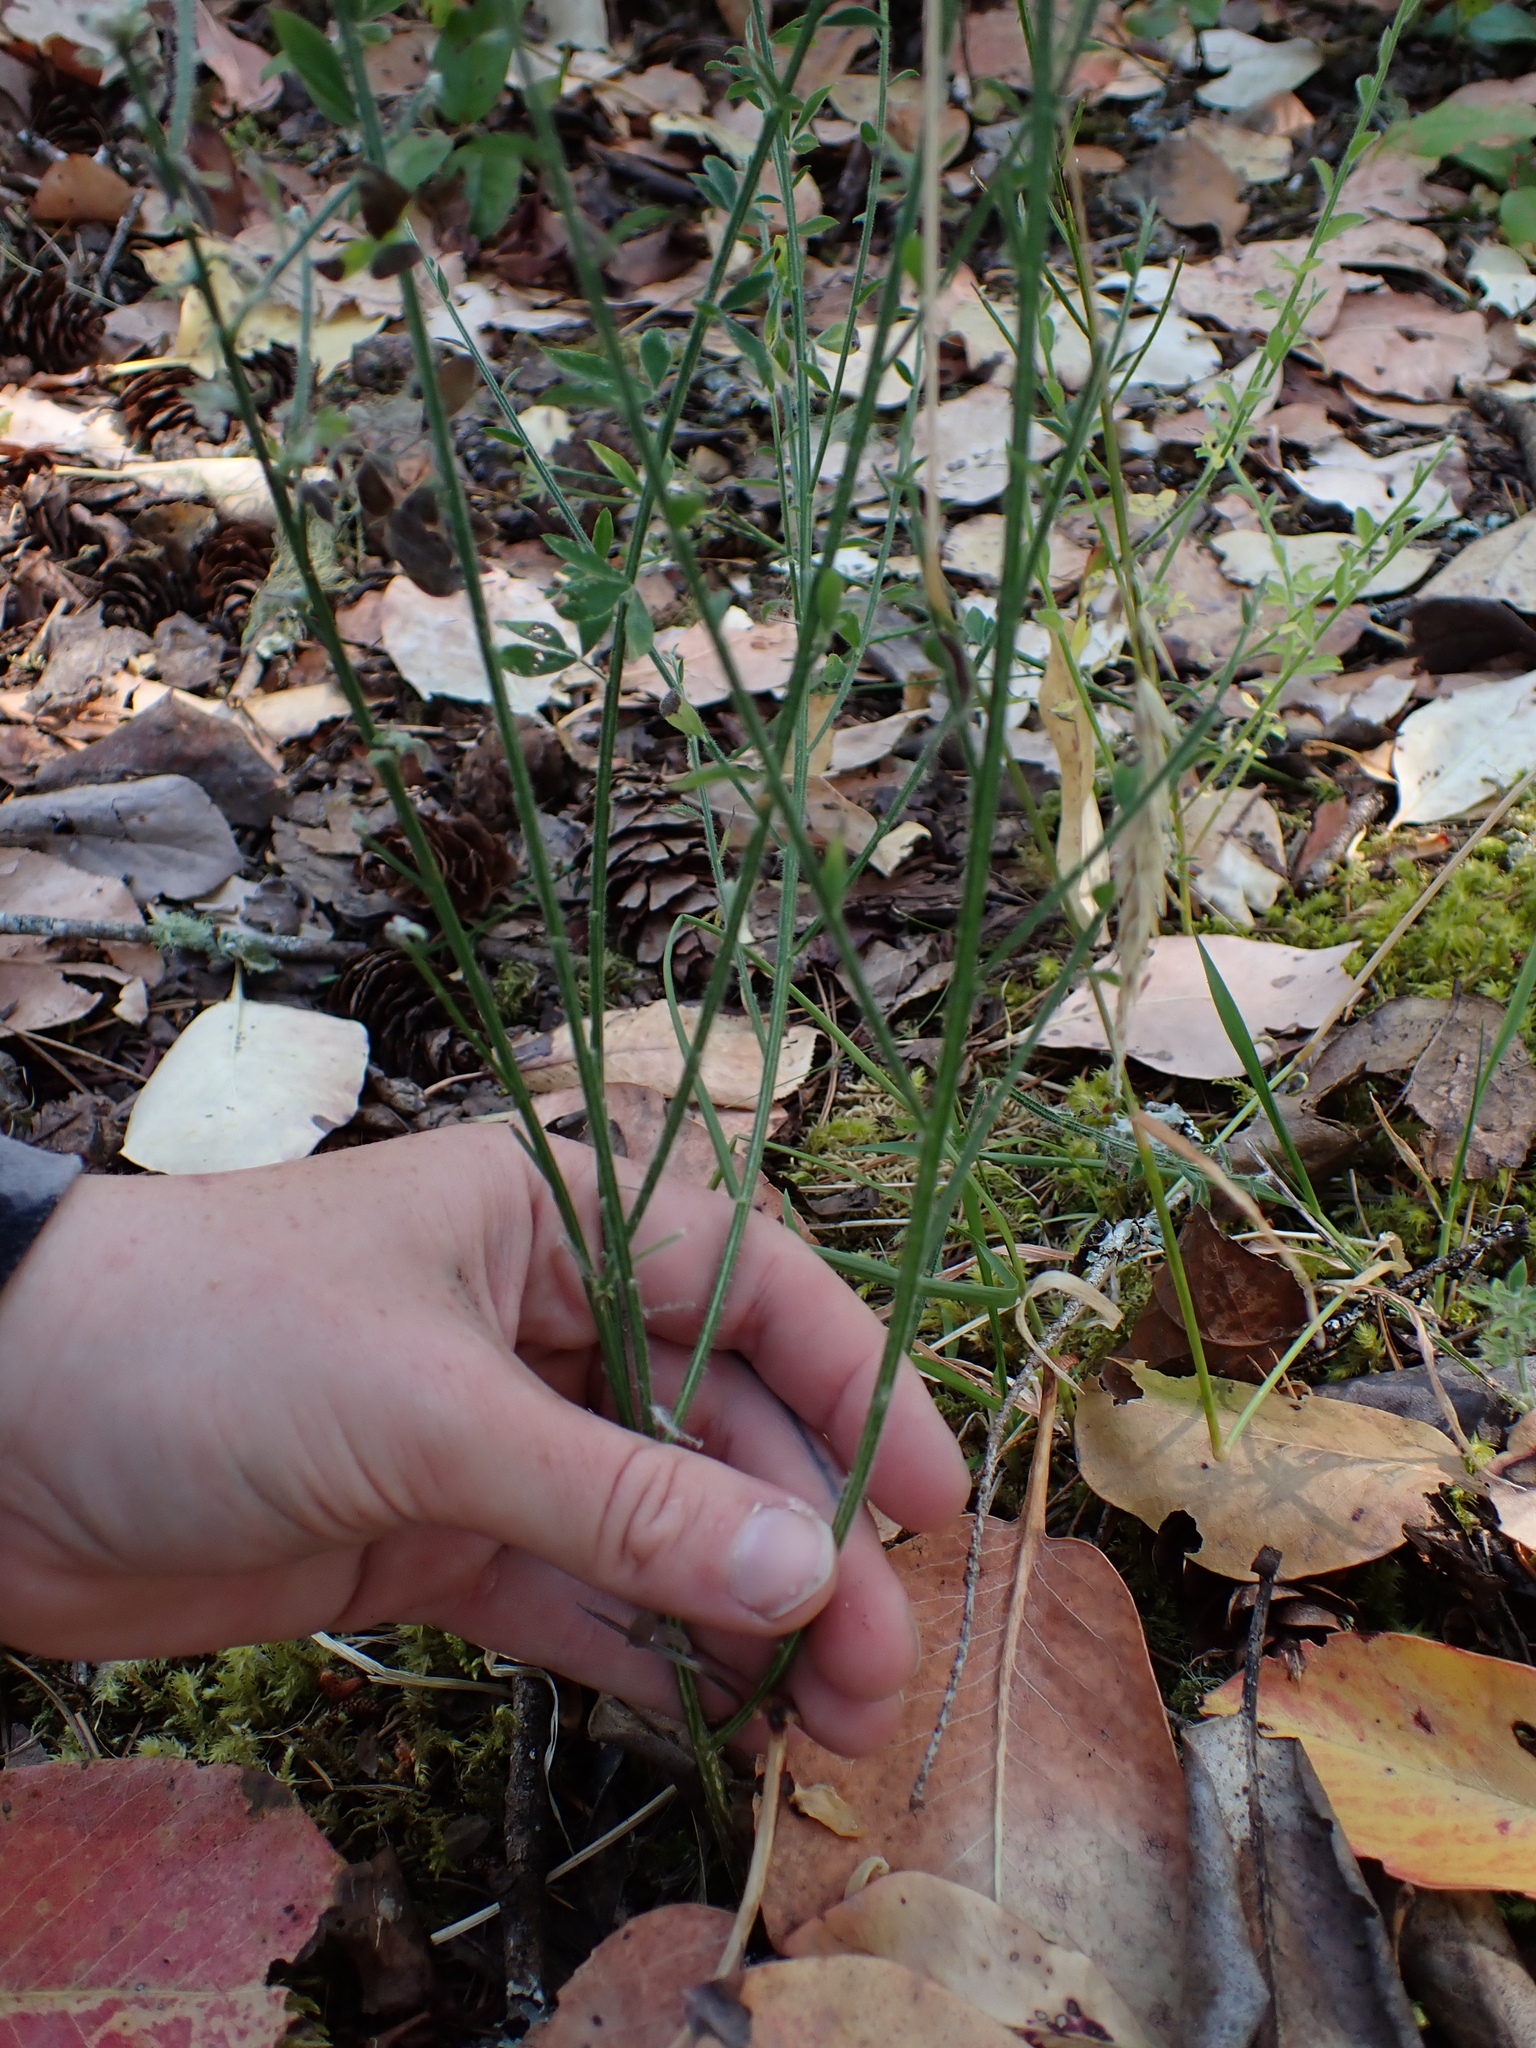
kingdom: Plantae
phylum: Tracheophyta
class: Magnoliopsida
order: Fabales
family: Fabaceae
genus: Cytisus
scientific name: Cytisus scoparius
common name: Scotch broom
